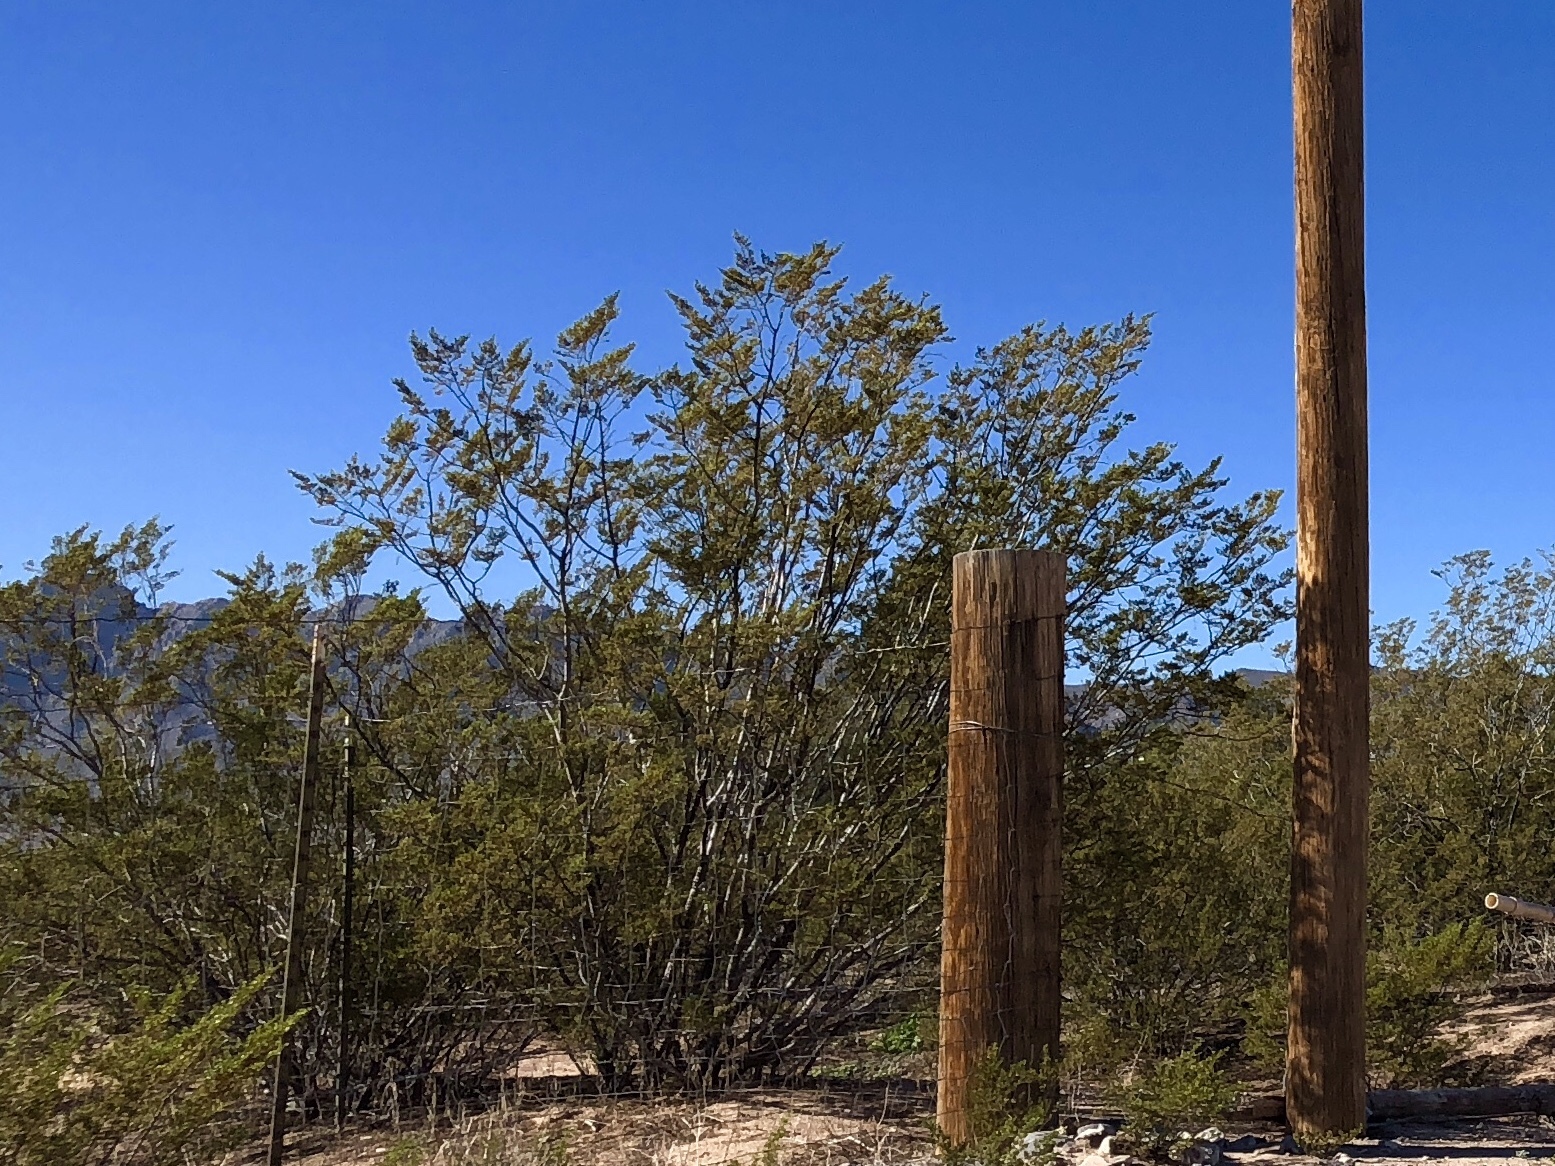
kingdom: Plantae
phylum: Tracheophyta
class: Magnoliopsida
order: Zygophyllales
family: Zygophyllaceae
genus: Larrea
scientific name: Larrea tridentata
